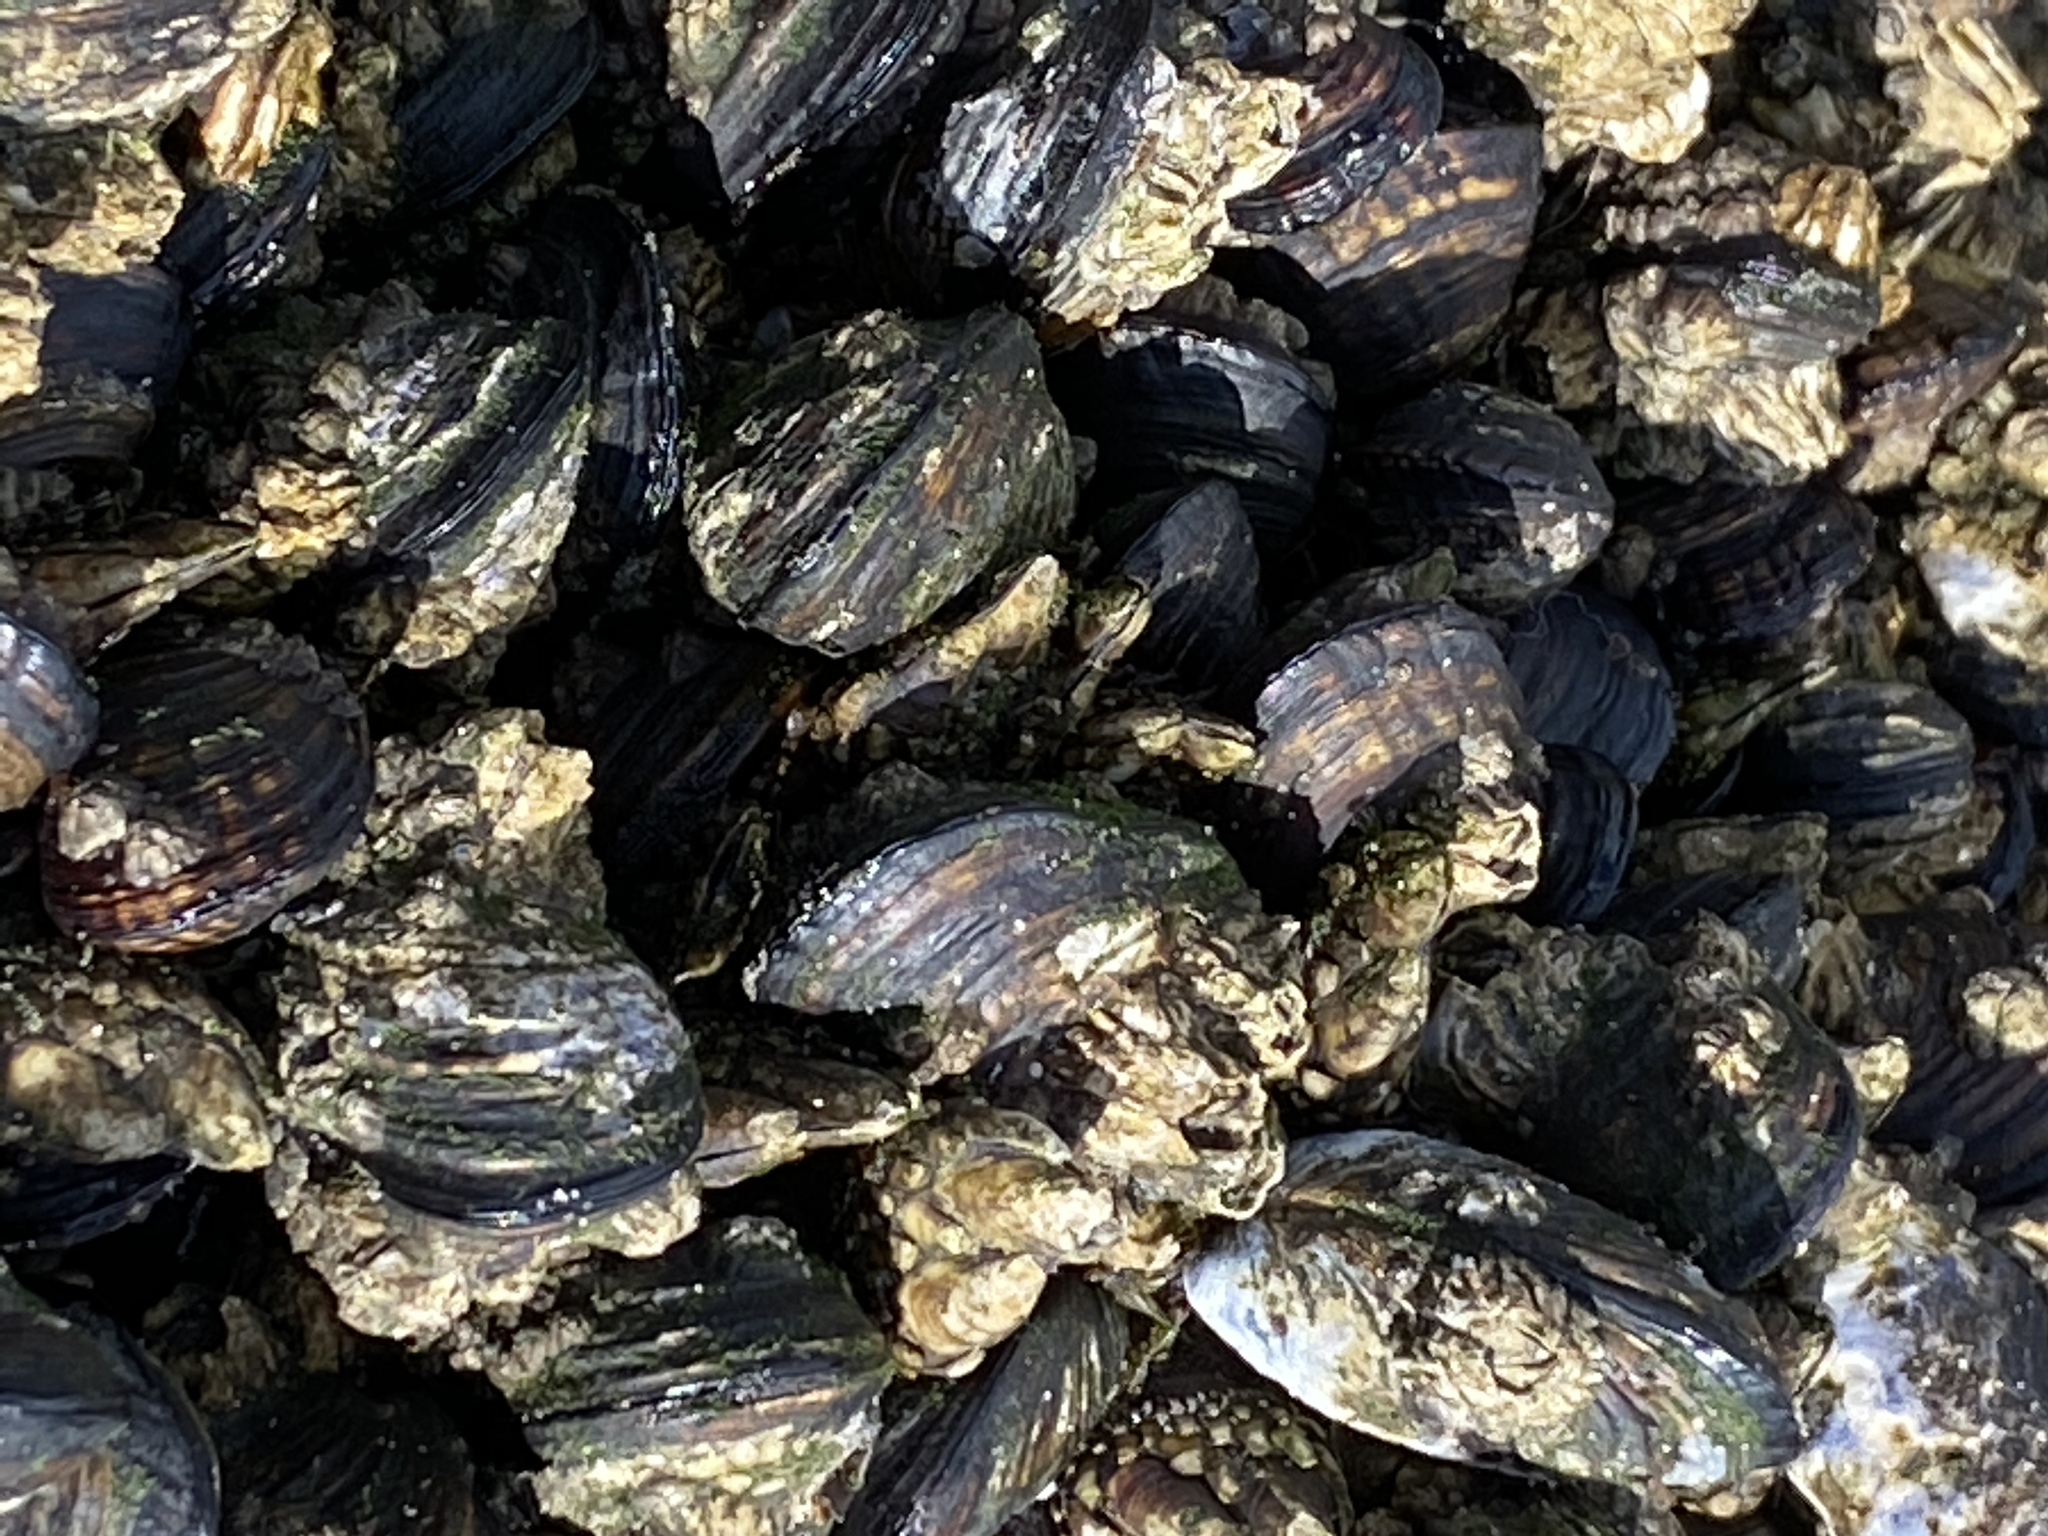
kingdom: Animalia
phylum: Mollusca
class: Bivalvia
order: Mytilida
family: Mytilidae
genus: Mytilus
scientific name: Mytilus californianus
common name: California mussel
